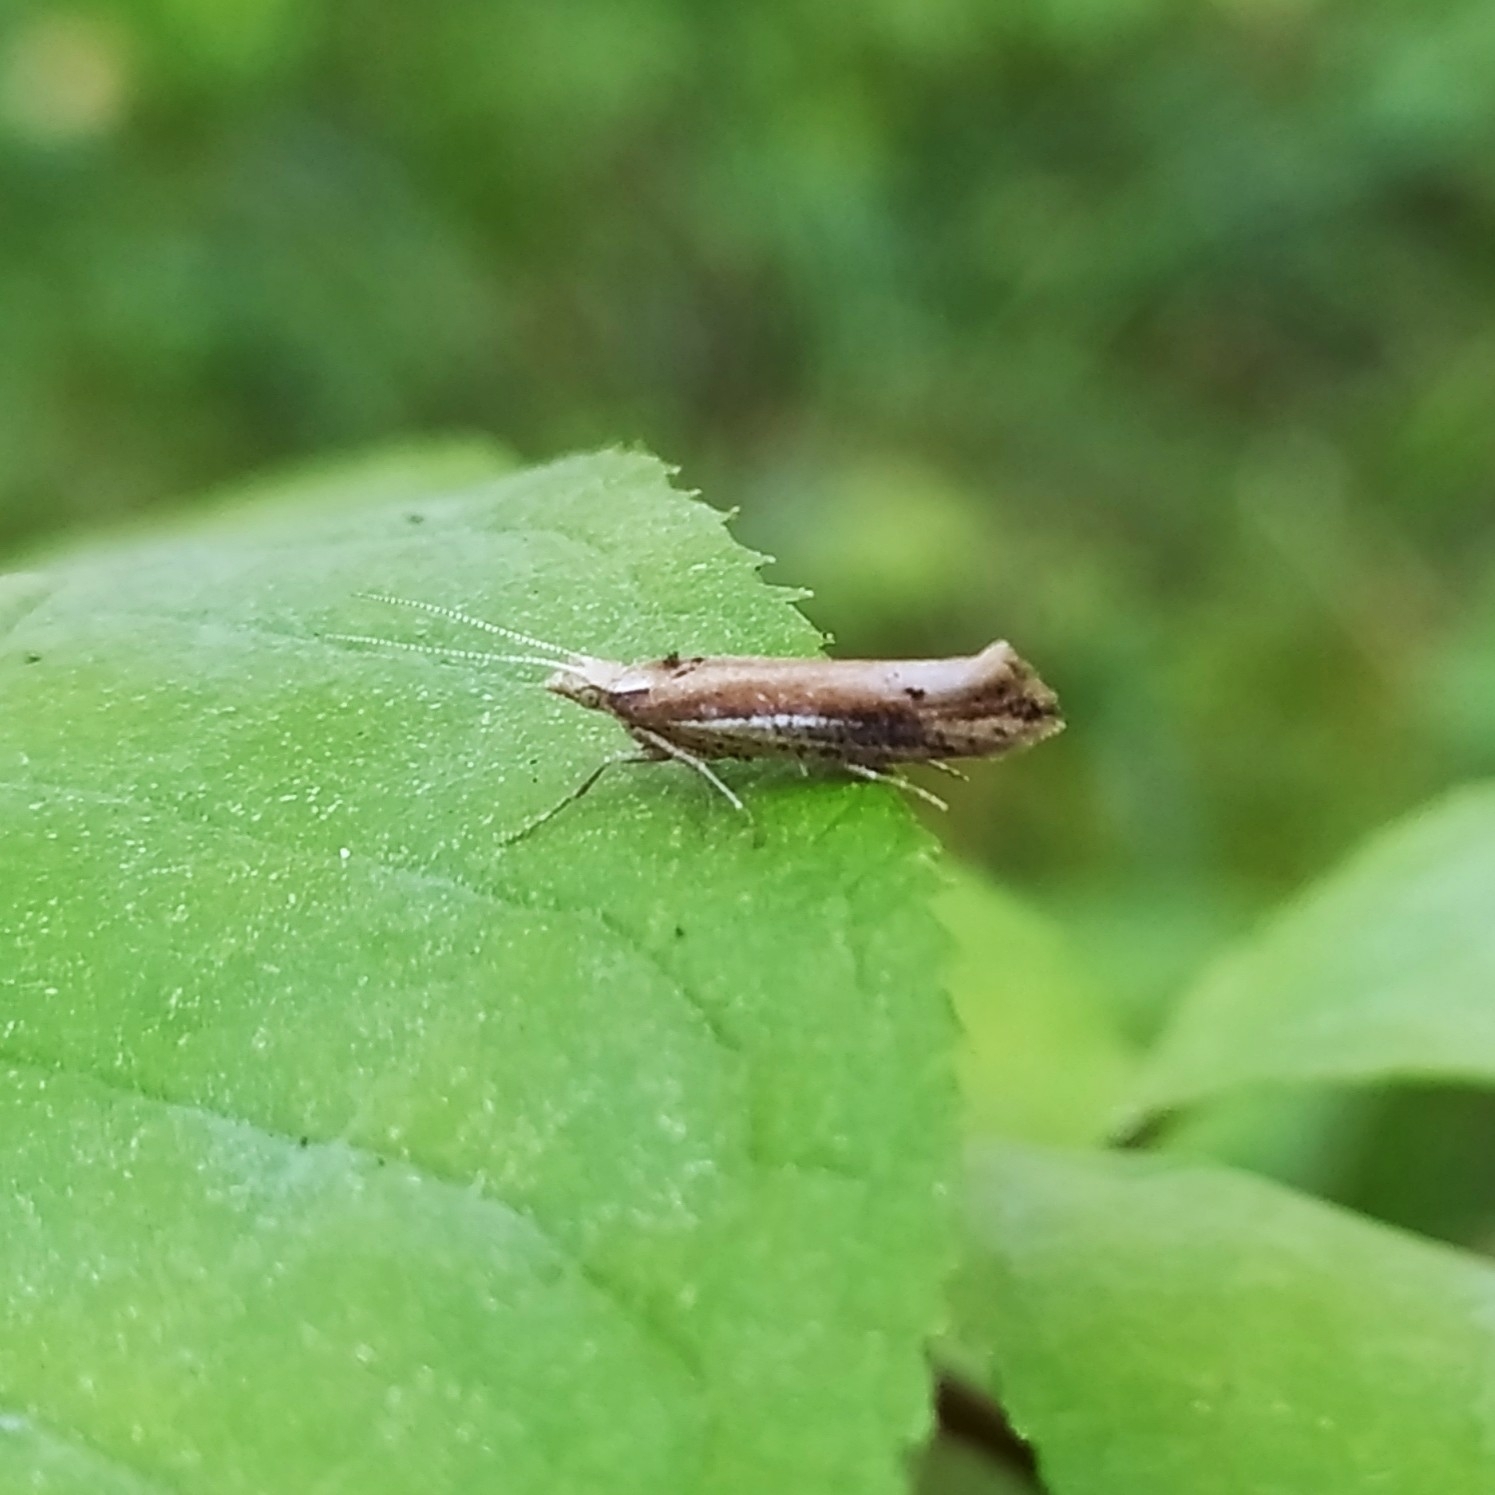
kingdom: Animalia
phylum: Arthropoda
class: Insecta
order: Lepidoptera
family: Ypsolophidae
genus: Ypsolopha
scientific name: Ypsolopha parenthesella
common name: White-shouldered smudge
